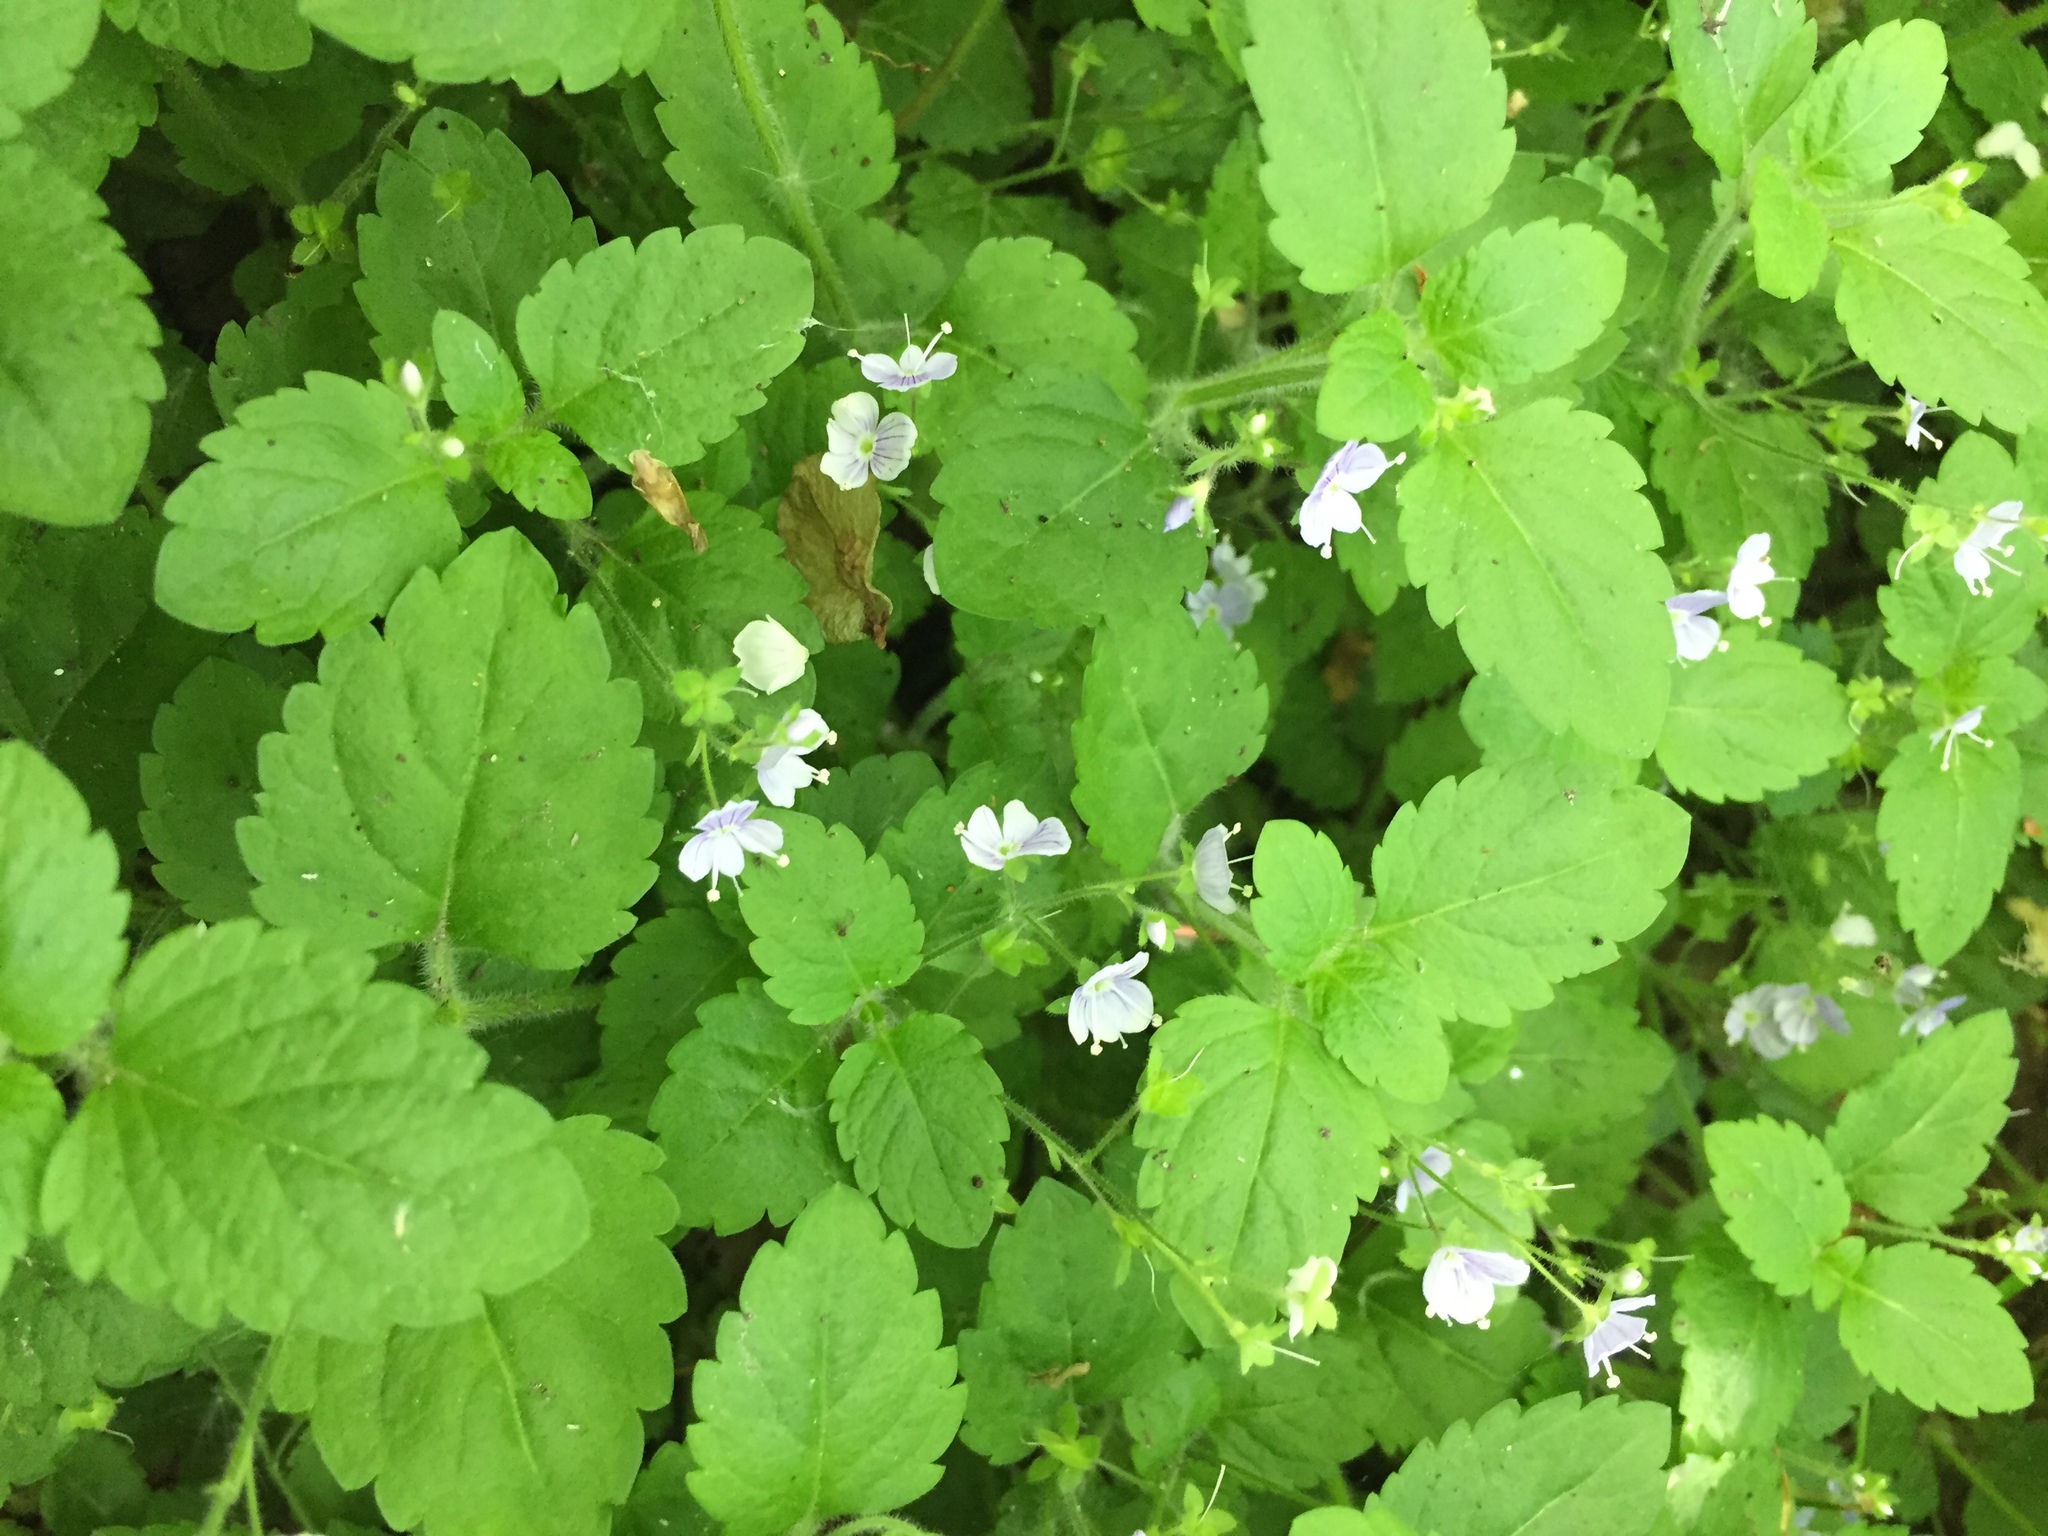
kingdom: Plantae
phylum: Tracheophyta
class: Magnoliopsida
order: Lamiales
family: Plantaginaceae
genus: Veronica
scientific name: Veronica montana
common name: Wood speedwell
